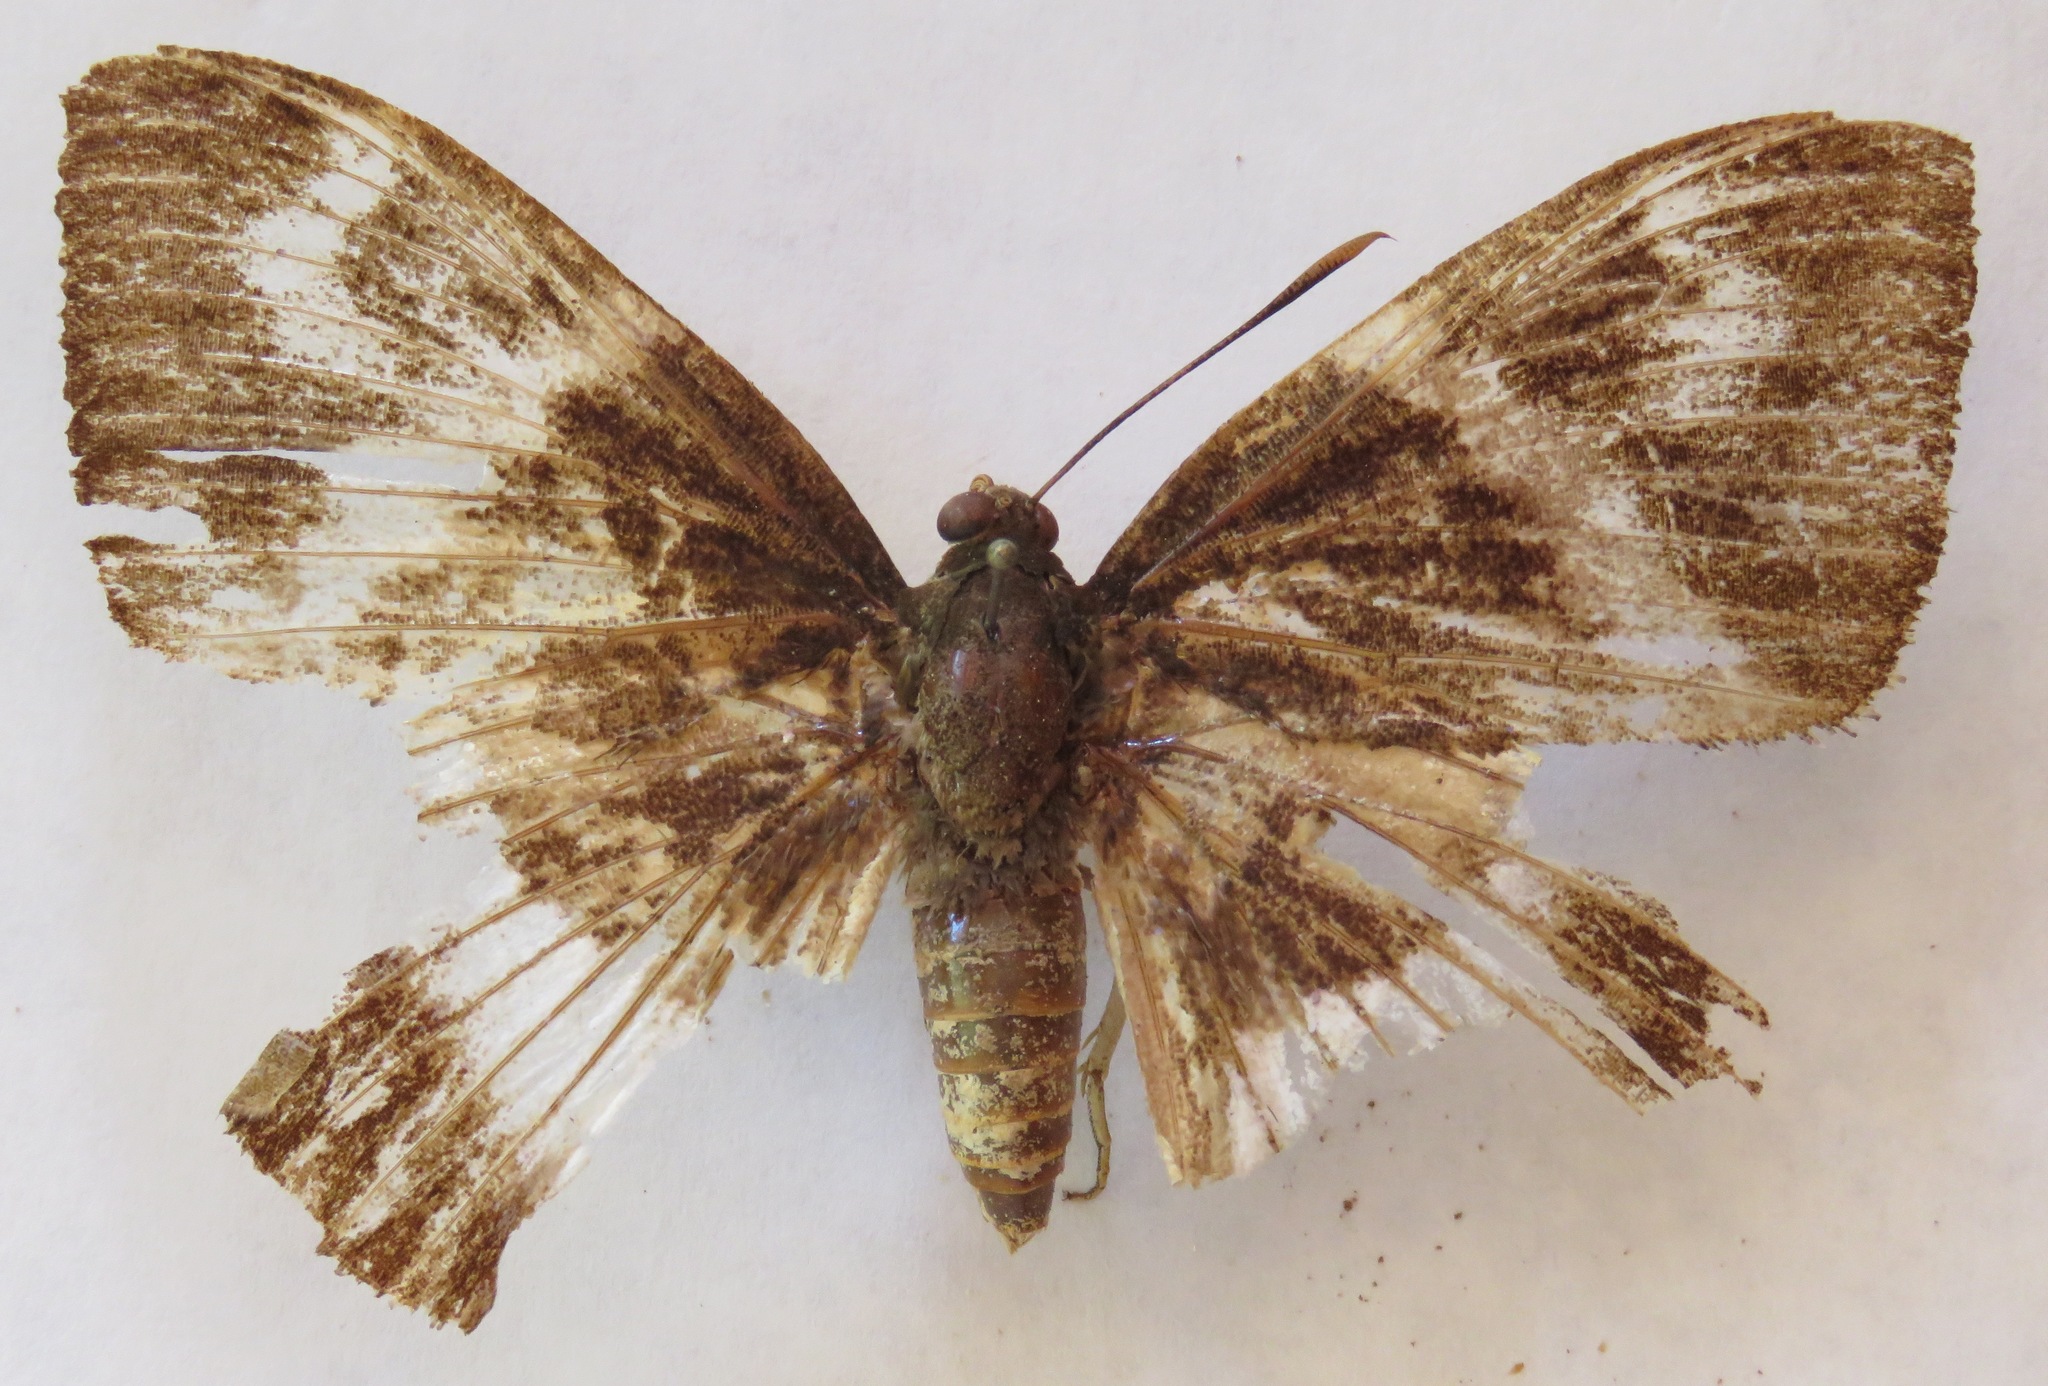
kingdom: Animalia
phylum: Arthropoda
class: Insecta
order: Lepidoptera
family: Castniidae
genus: Castniomera
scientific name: Castniomera atymnius
